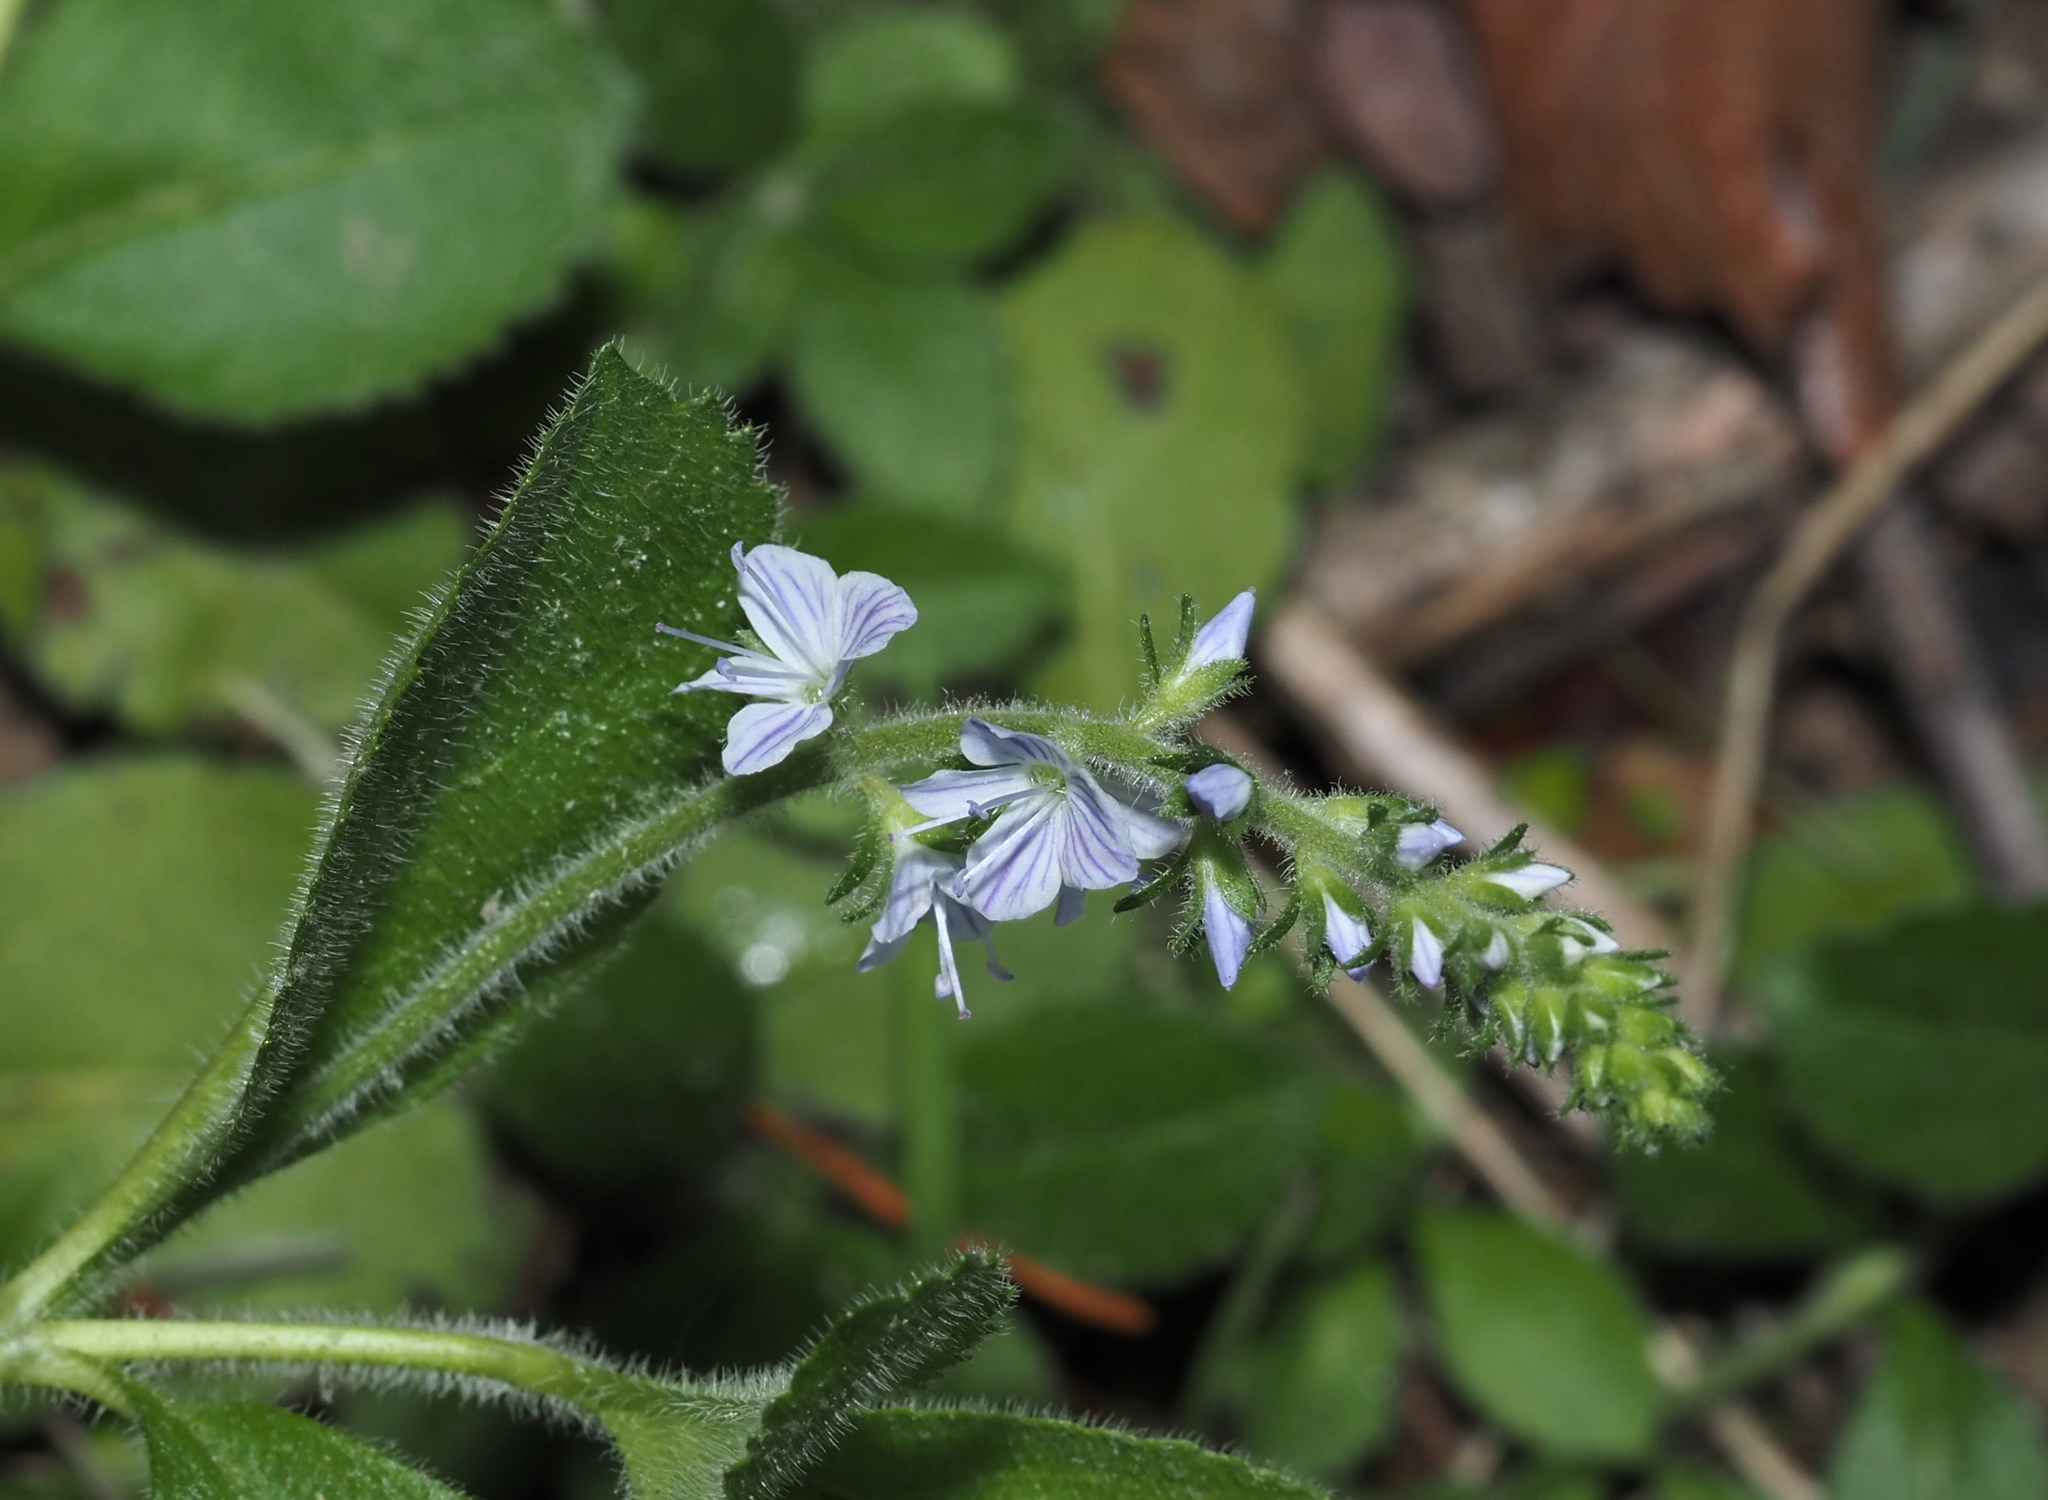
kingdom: Plantae
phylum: Tracheophyta
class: Magnoliopsida
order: Lamiales
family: Plantaginaceae
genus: Veronica
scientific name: Veronica officinalis
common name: Common speedwell
